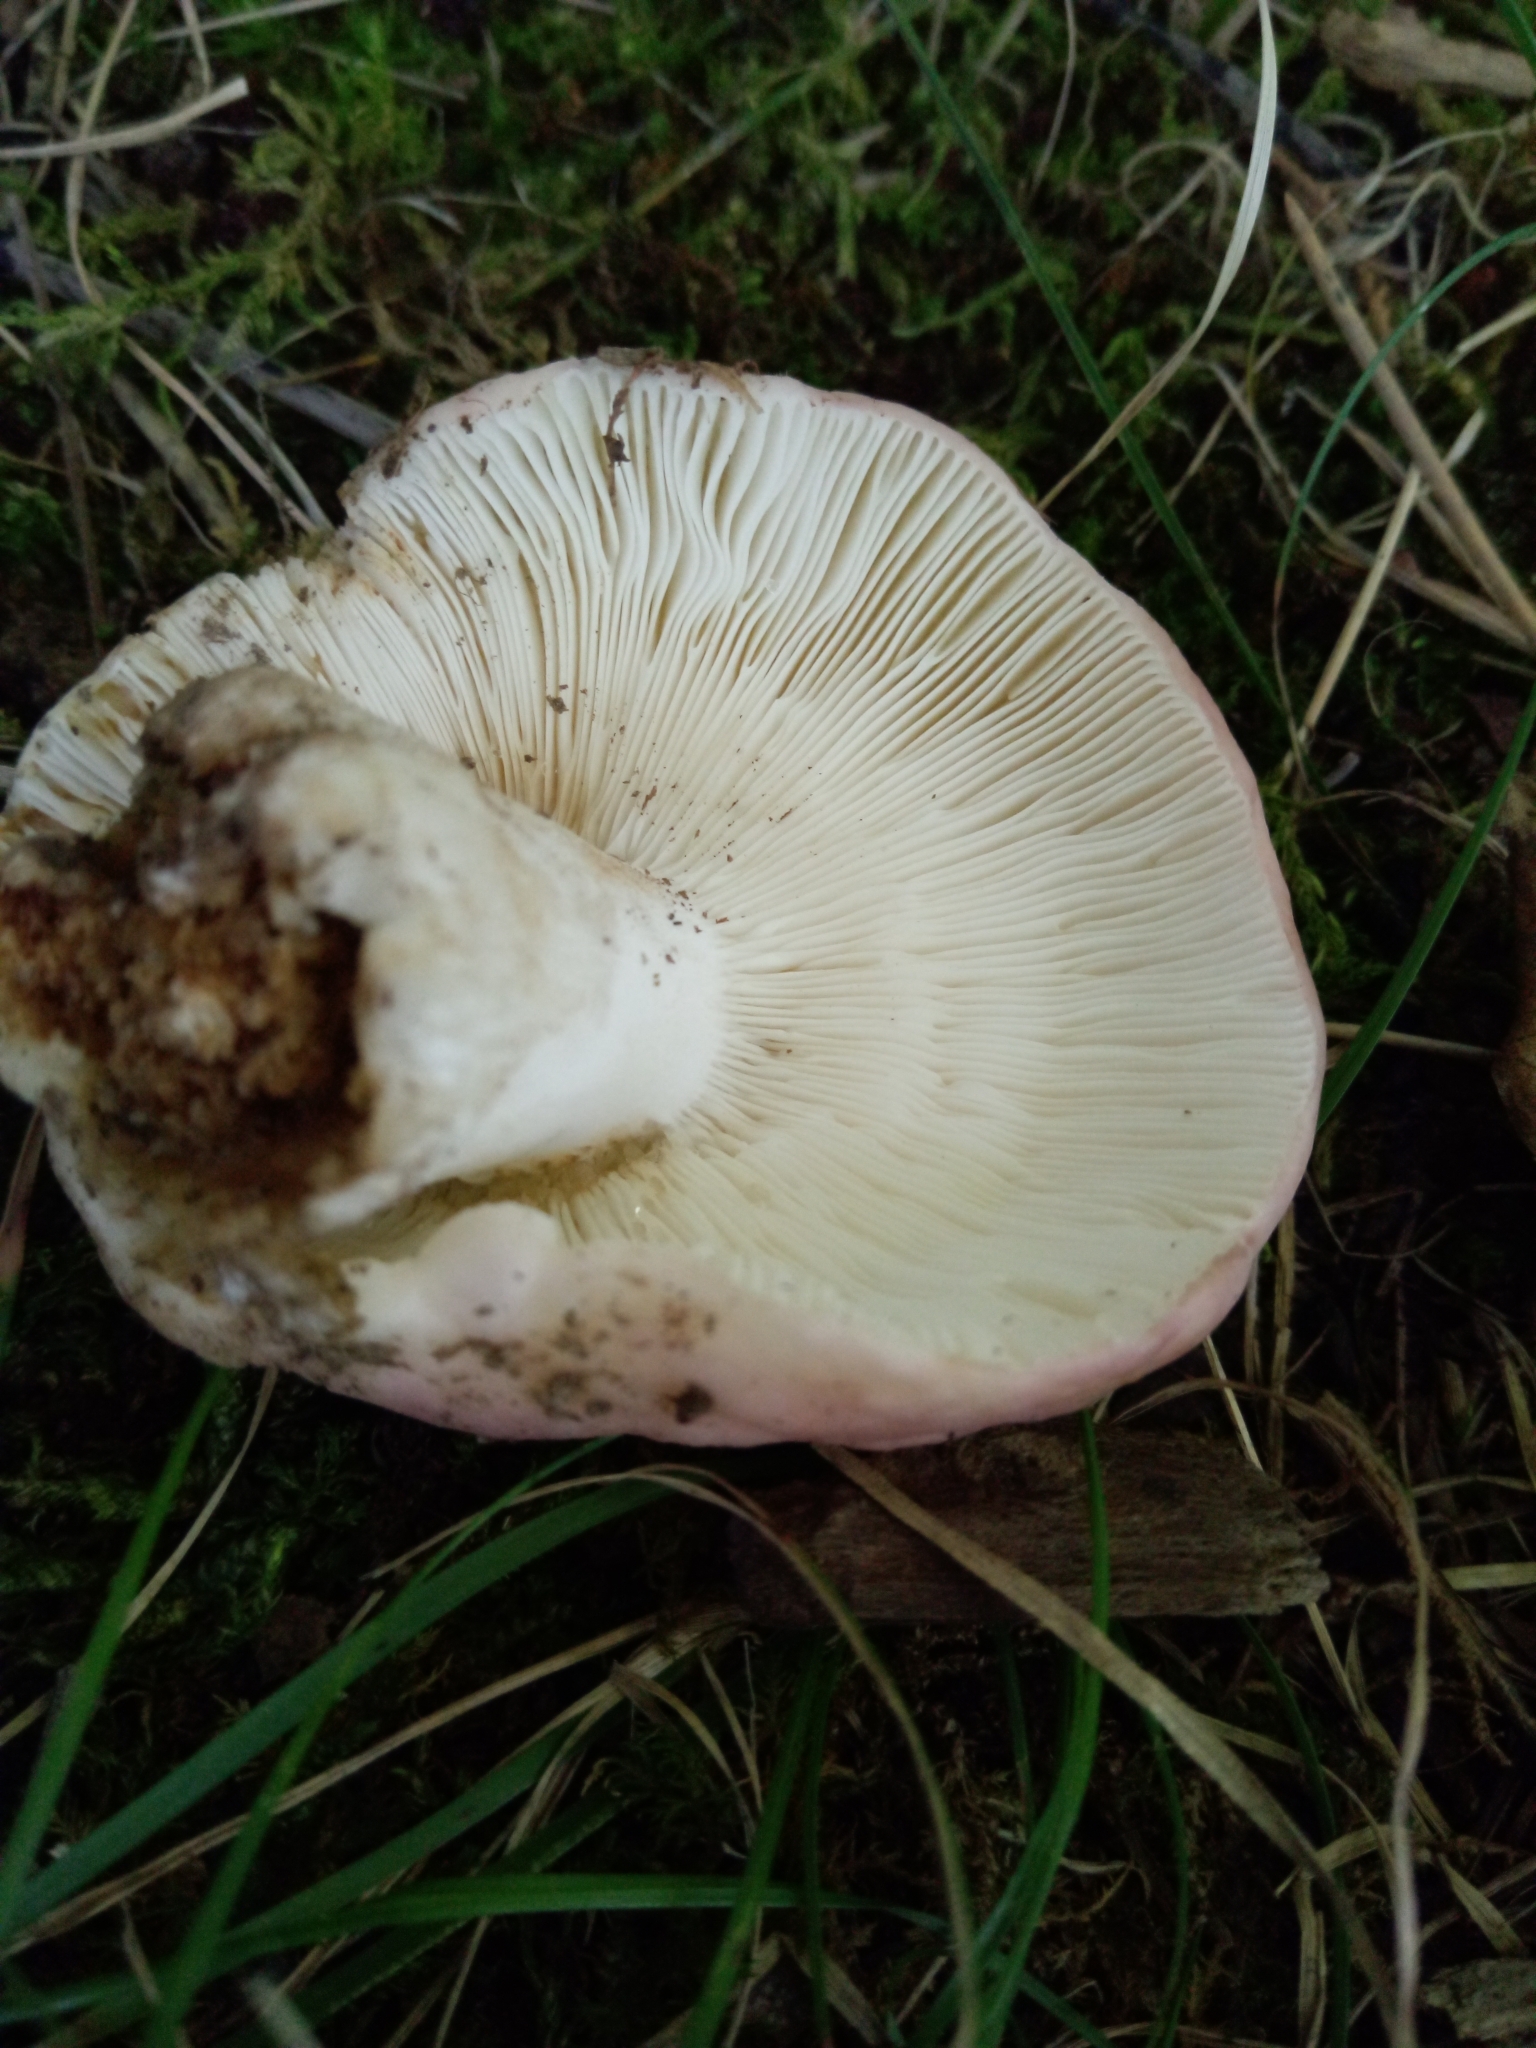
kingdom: Fungi
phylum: Basidiomycota
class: Agaricomycetes
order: Russulales
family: Russulaceae
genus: Russula
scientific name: Russula cyanoxantha
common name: Charcoal burner
